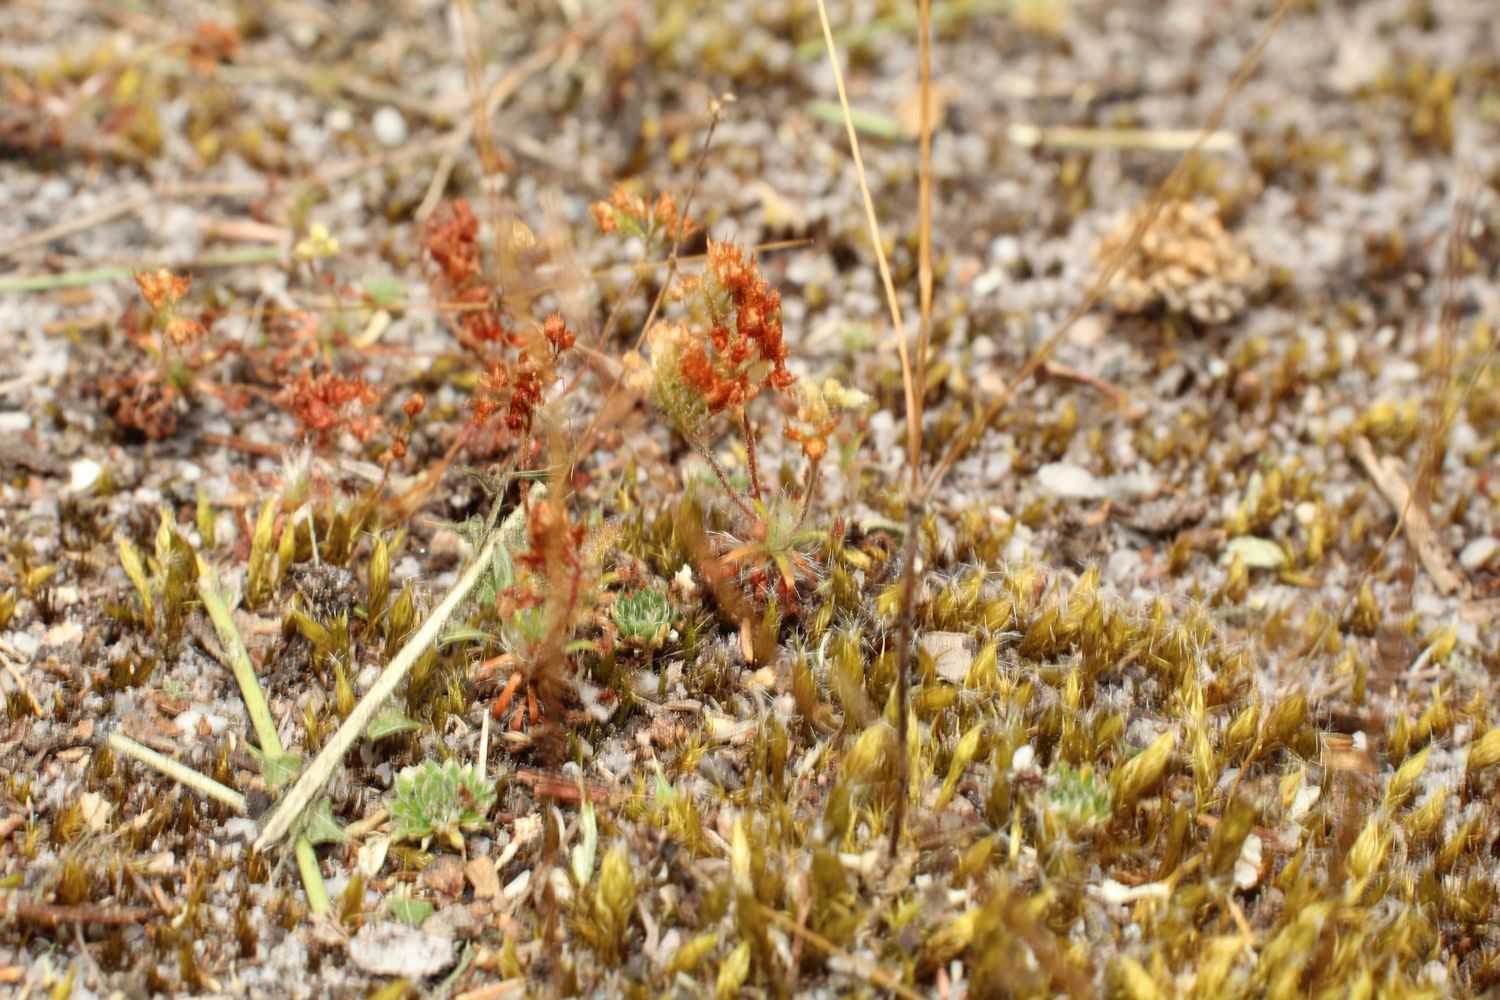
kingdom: Plantae
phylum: Tracheophyta
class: Magnoliopsida
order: Caryophyllales
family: Droseraceae
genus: Drosera
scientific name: Drosera paleacea
